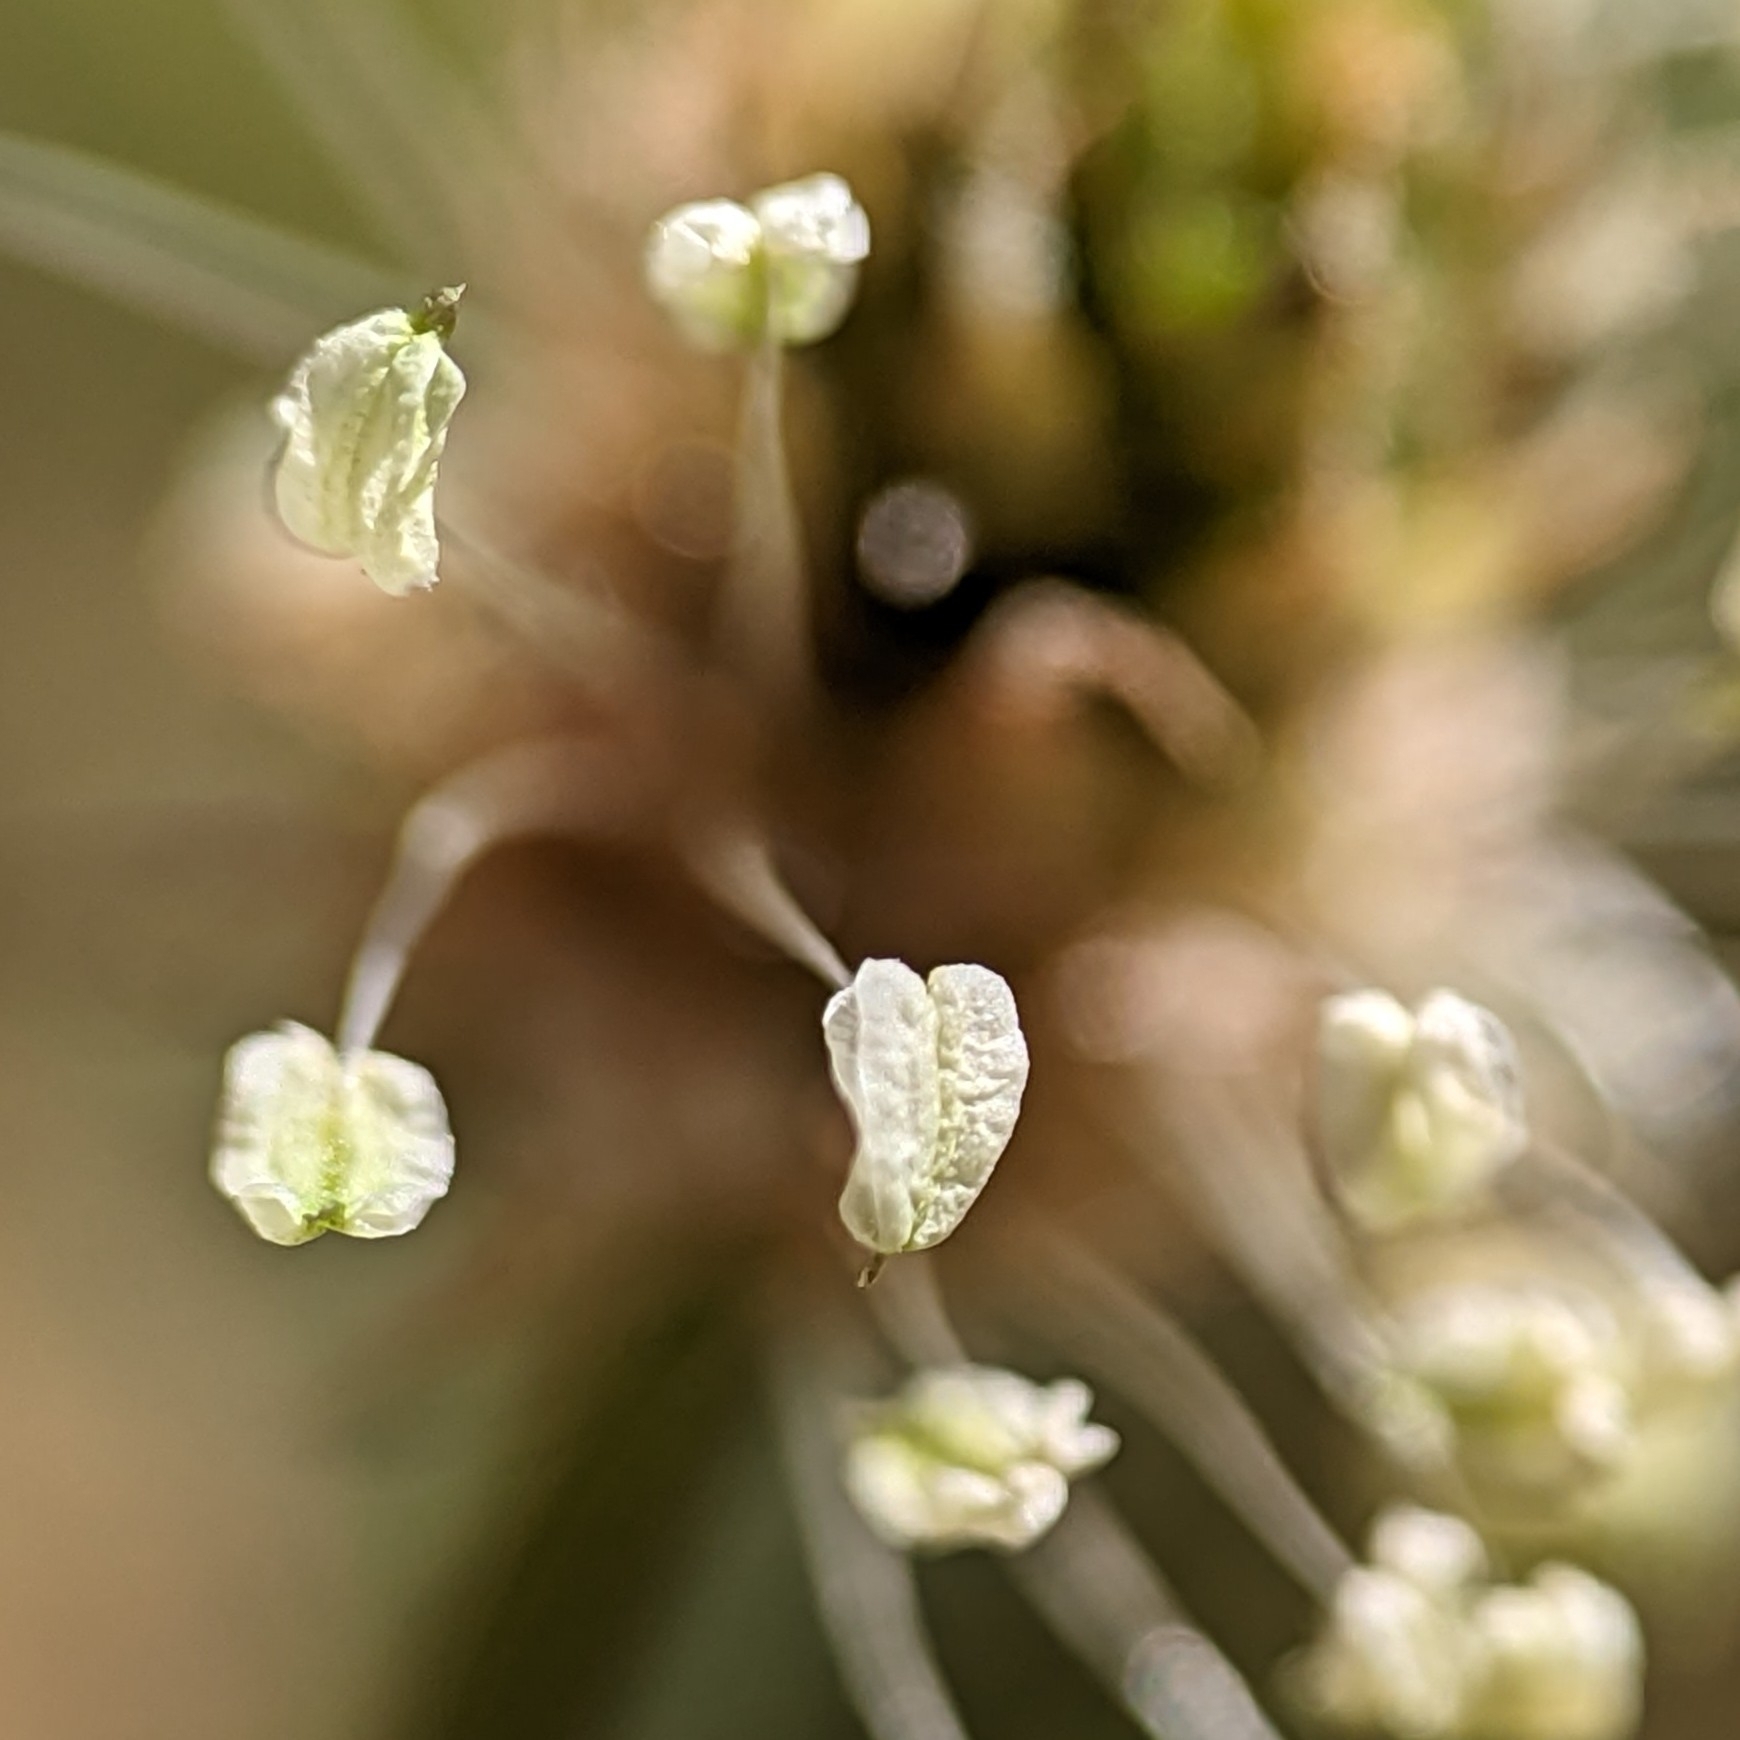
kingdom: Plantae
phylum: Tracheophyta
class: Magnoliopsida
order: Lamiales
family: Plantaginaceae
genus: Plantago
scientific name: Plantago lanceolata
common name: Ribwort plantain
